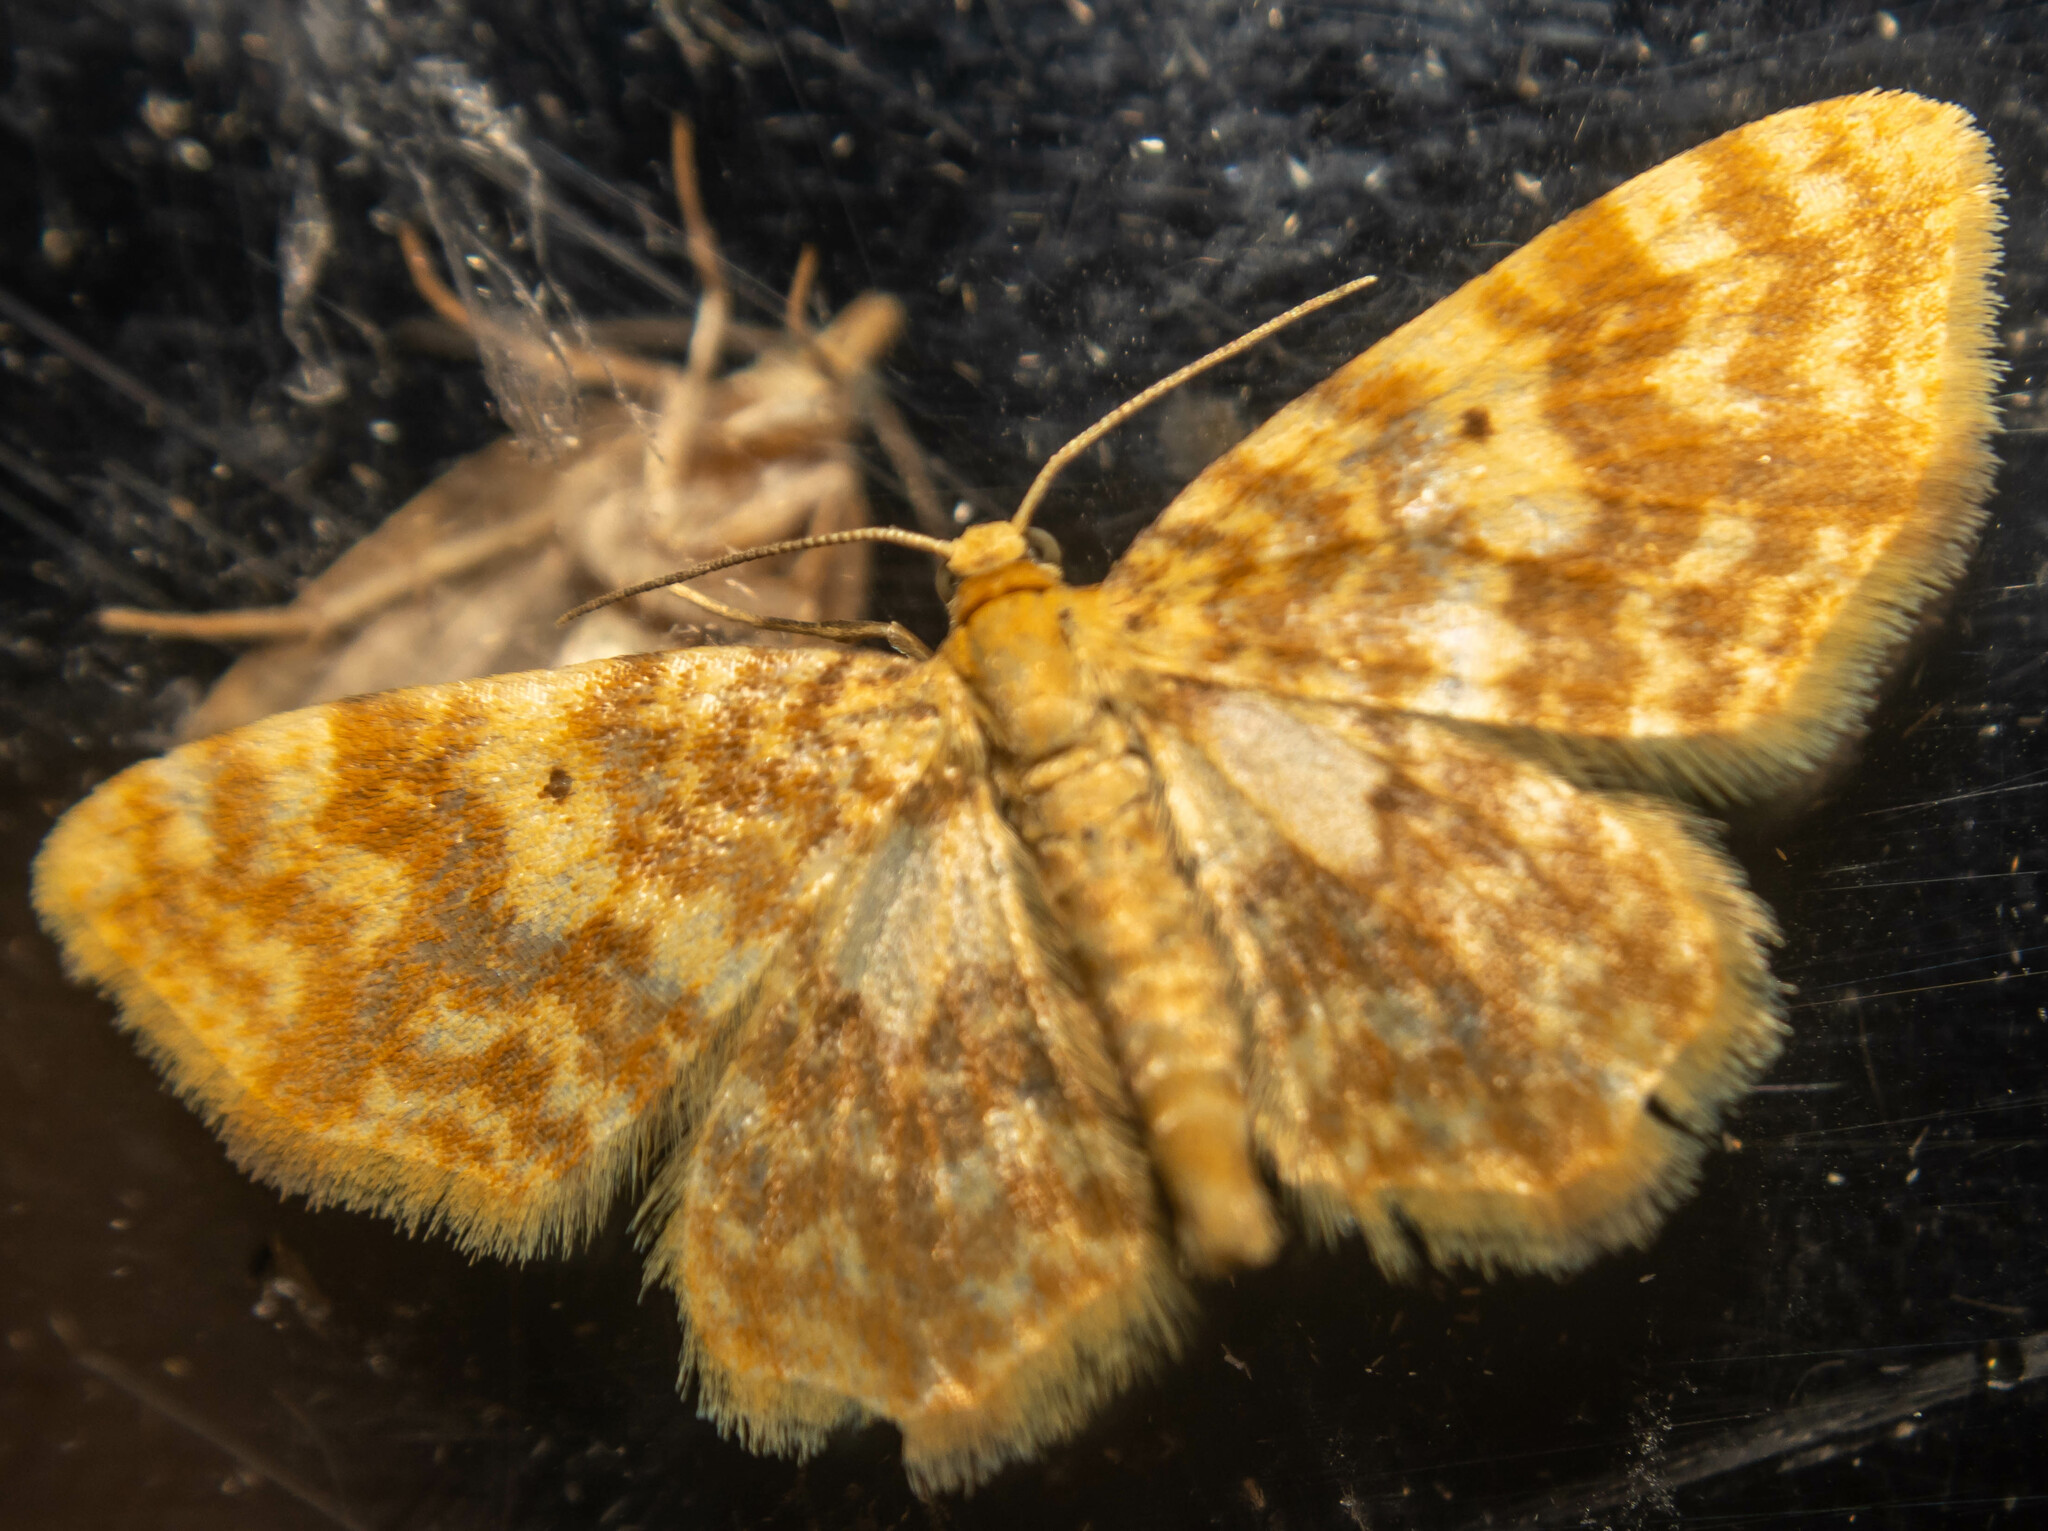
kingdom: Animalia
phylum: Arthropoda
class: Insecta
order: Lepidoptera
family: Geometridae
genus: Hydrelia
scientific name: Hydrelia flammeolaria
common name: Small yellow wave
